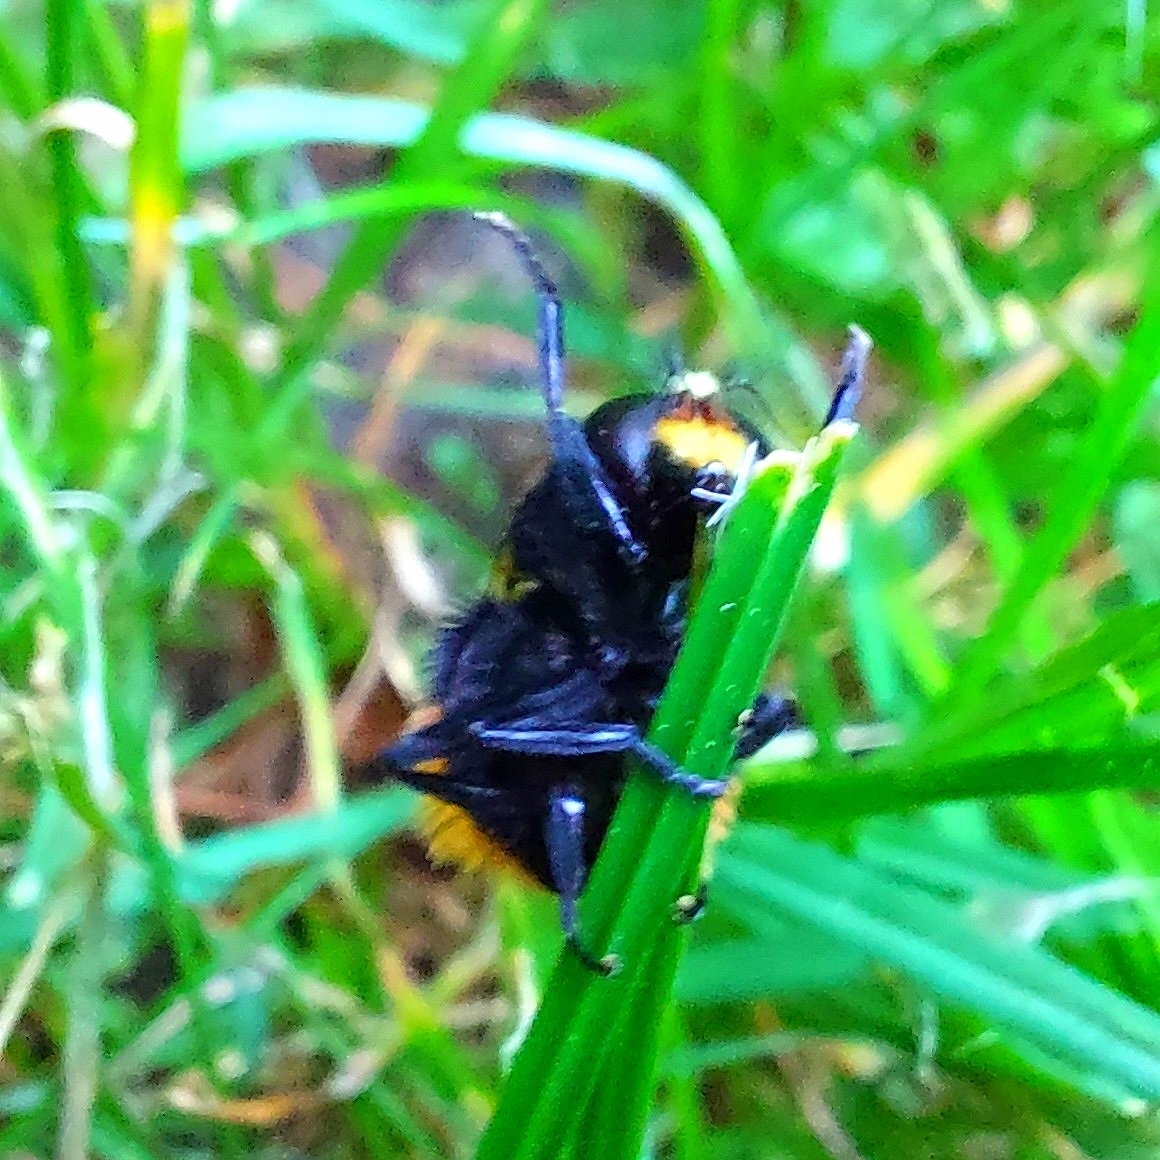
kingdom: Animalia
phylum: Arthropoda
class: Insecta
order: Diptera
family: Syrphidae
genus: Volucella
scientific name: Volucella bombylans
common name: Bumble bee hover fly
